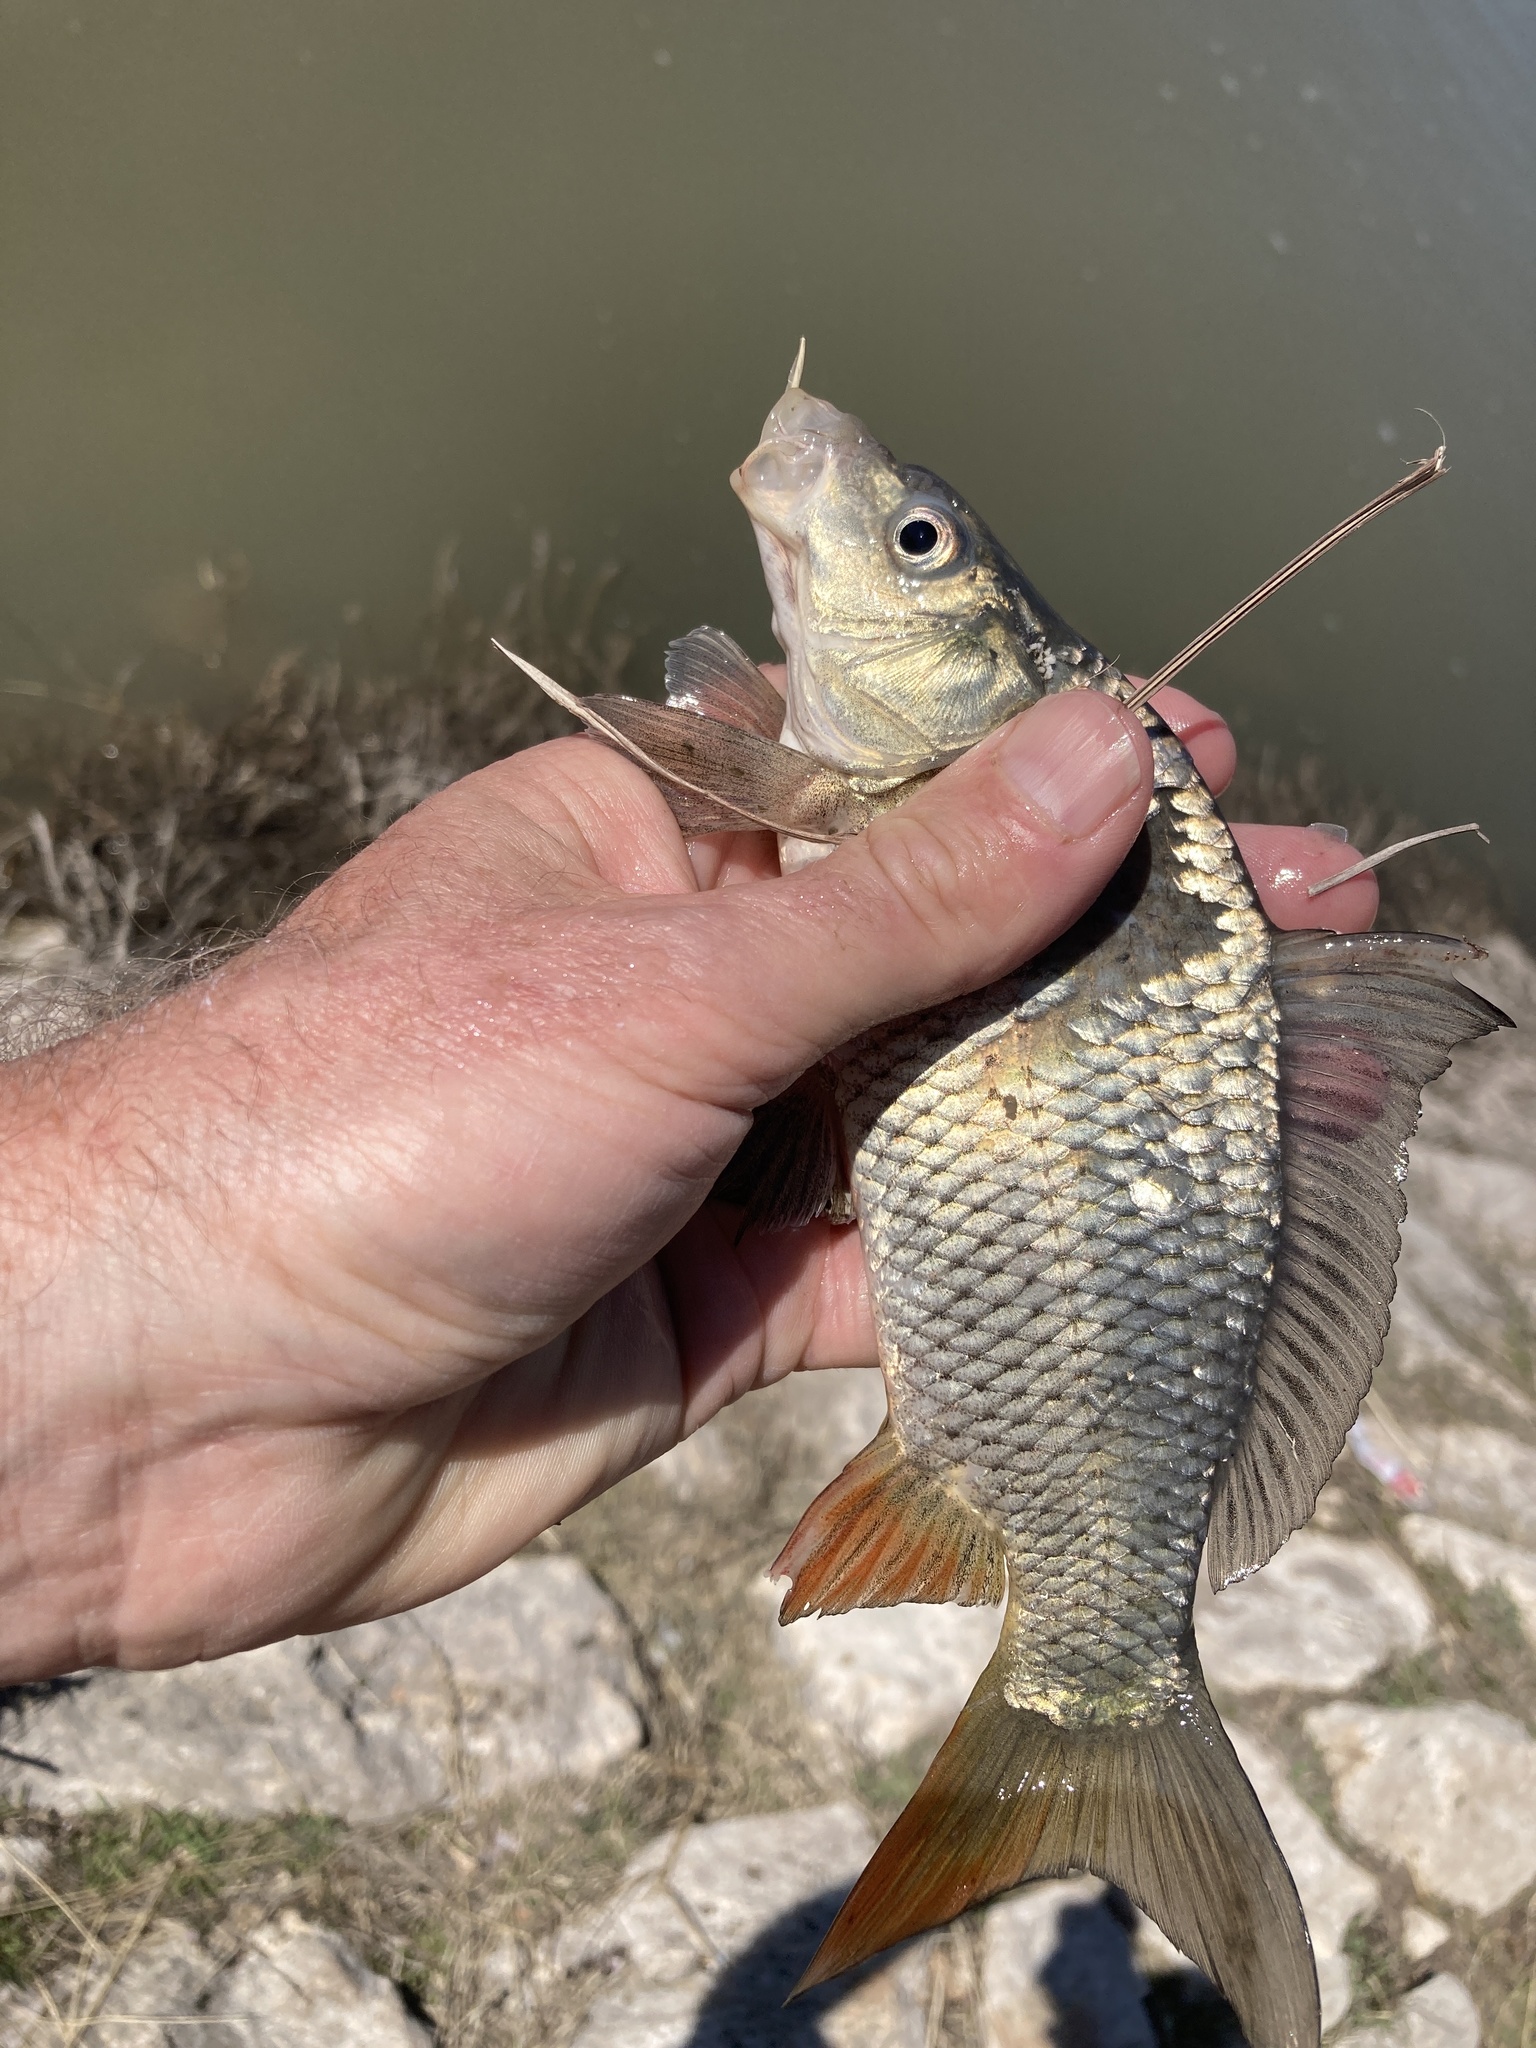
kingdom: Animalia
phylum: Chordata
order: Cypriniformes
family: Cyprinidae
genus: Cyprinus
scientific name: Cyprinus carpio
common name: Common carp
